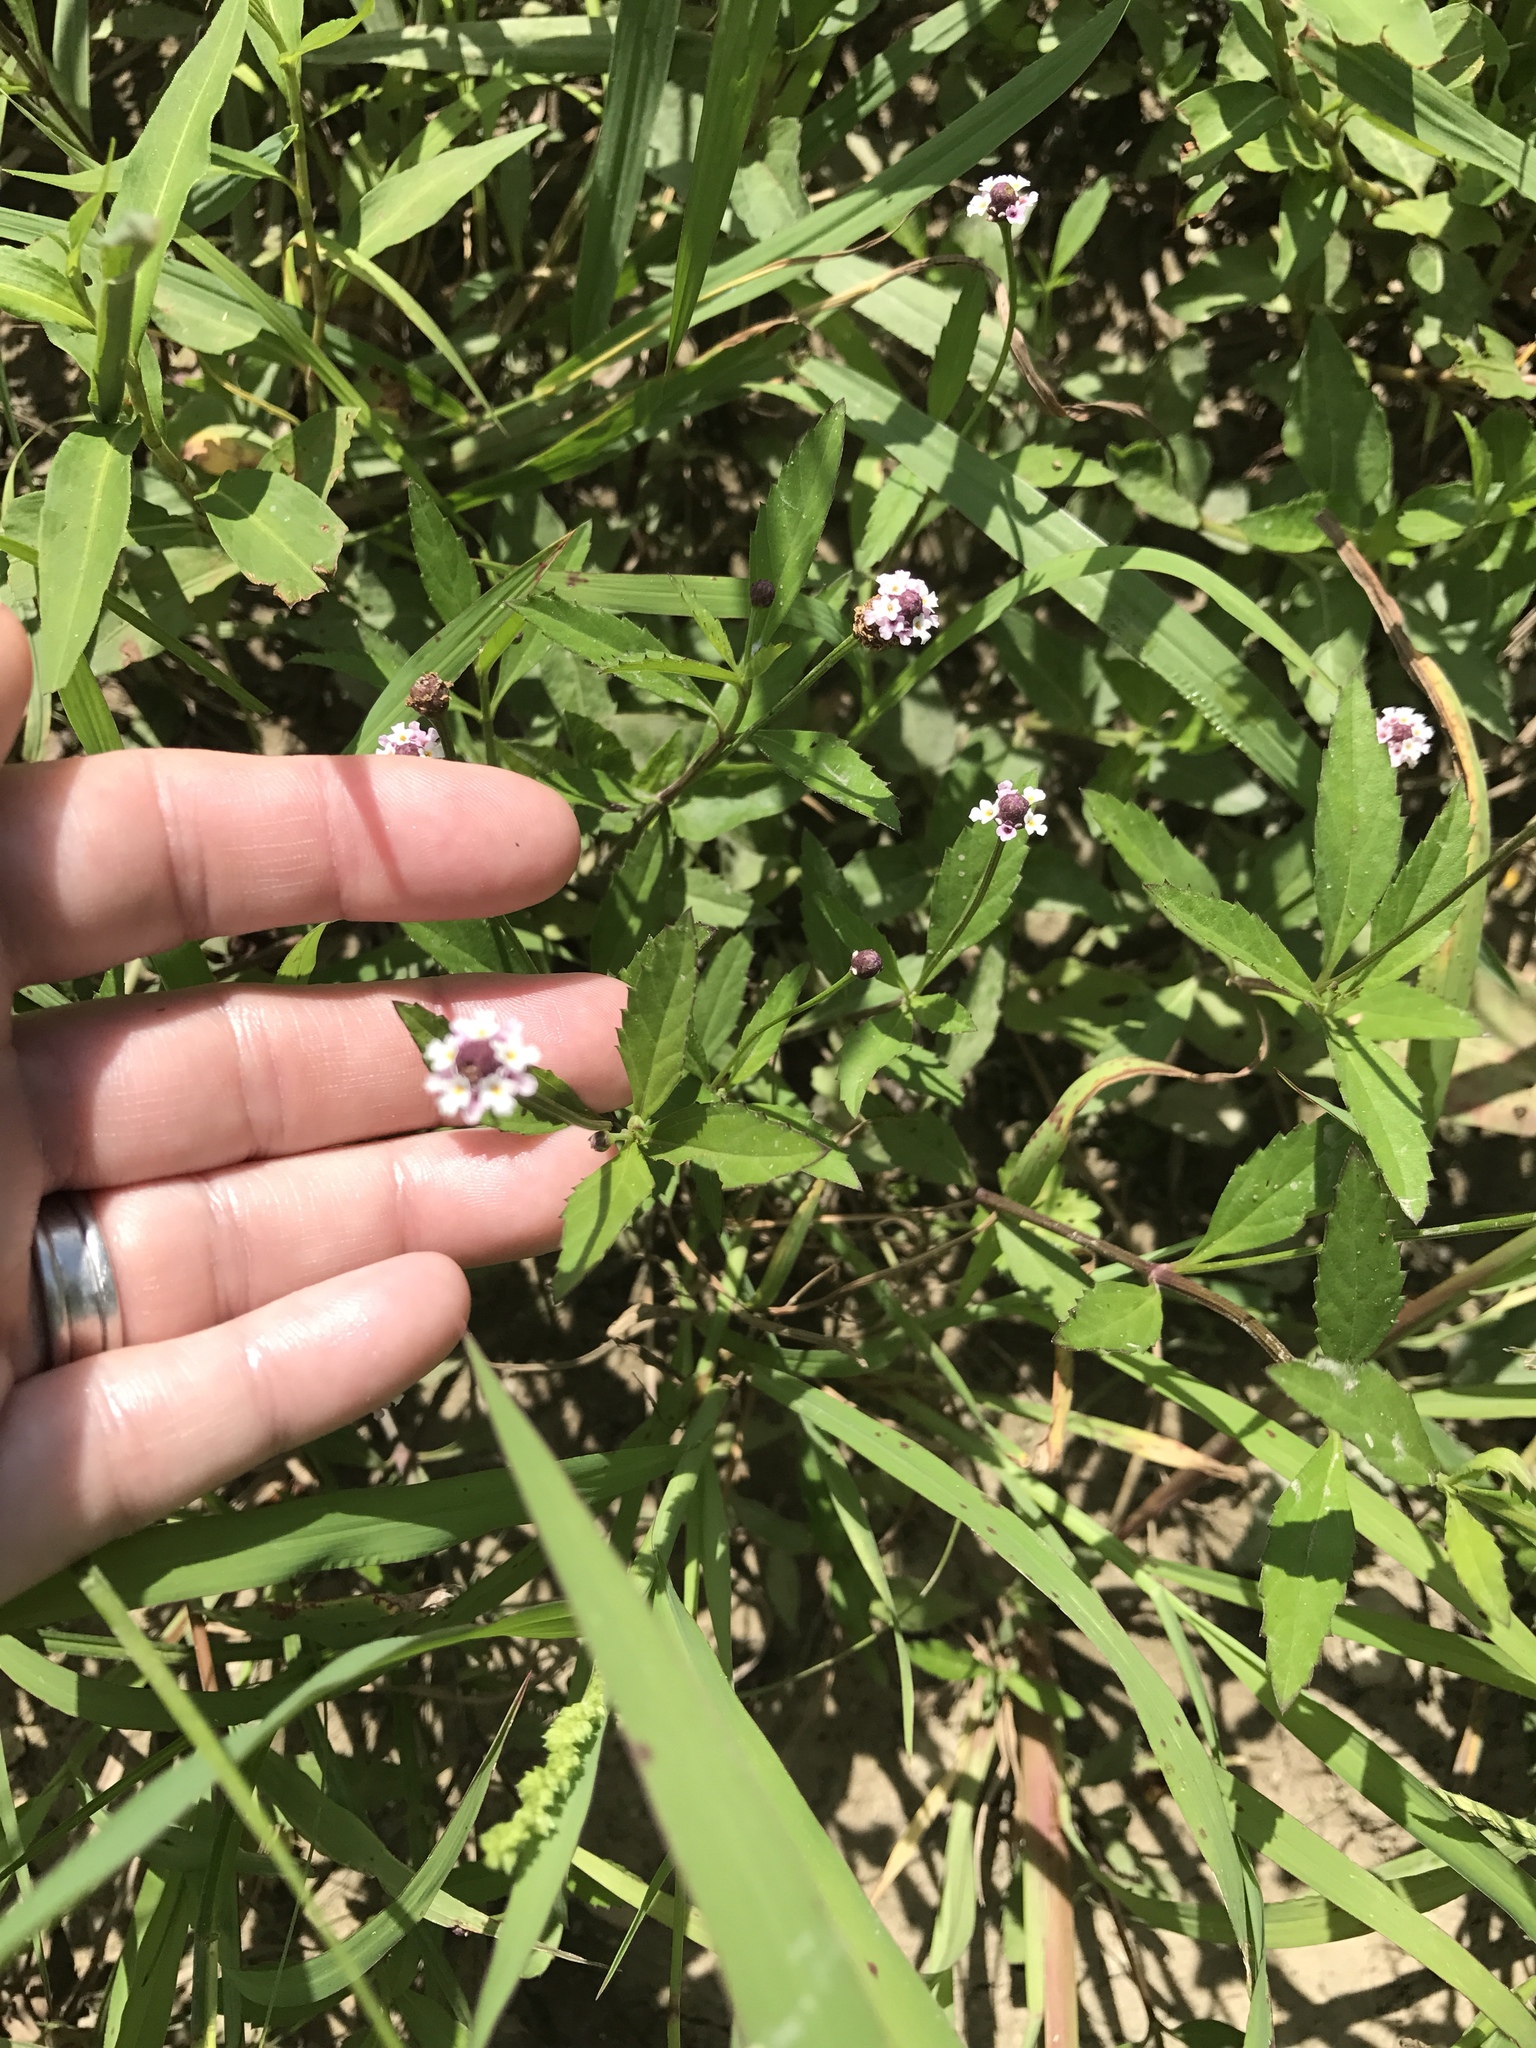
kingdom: Plantae
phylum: Tracheophyta
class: Magnoliopsida
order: Lamiales
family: Verbenaceae
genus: Phyla
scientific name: Phyla lanceolata
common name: Northern fogfruit
